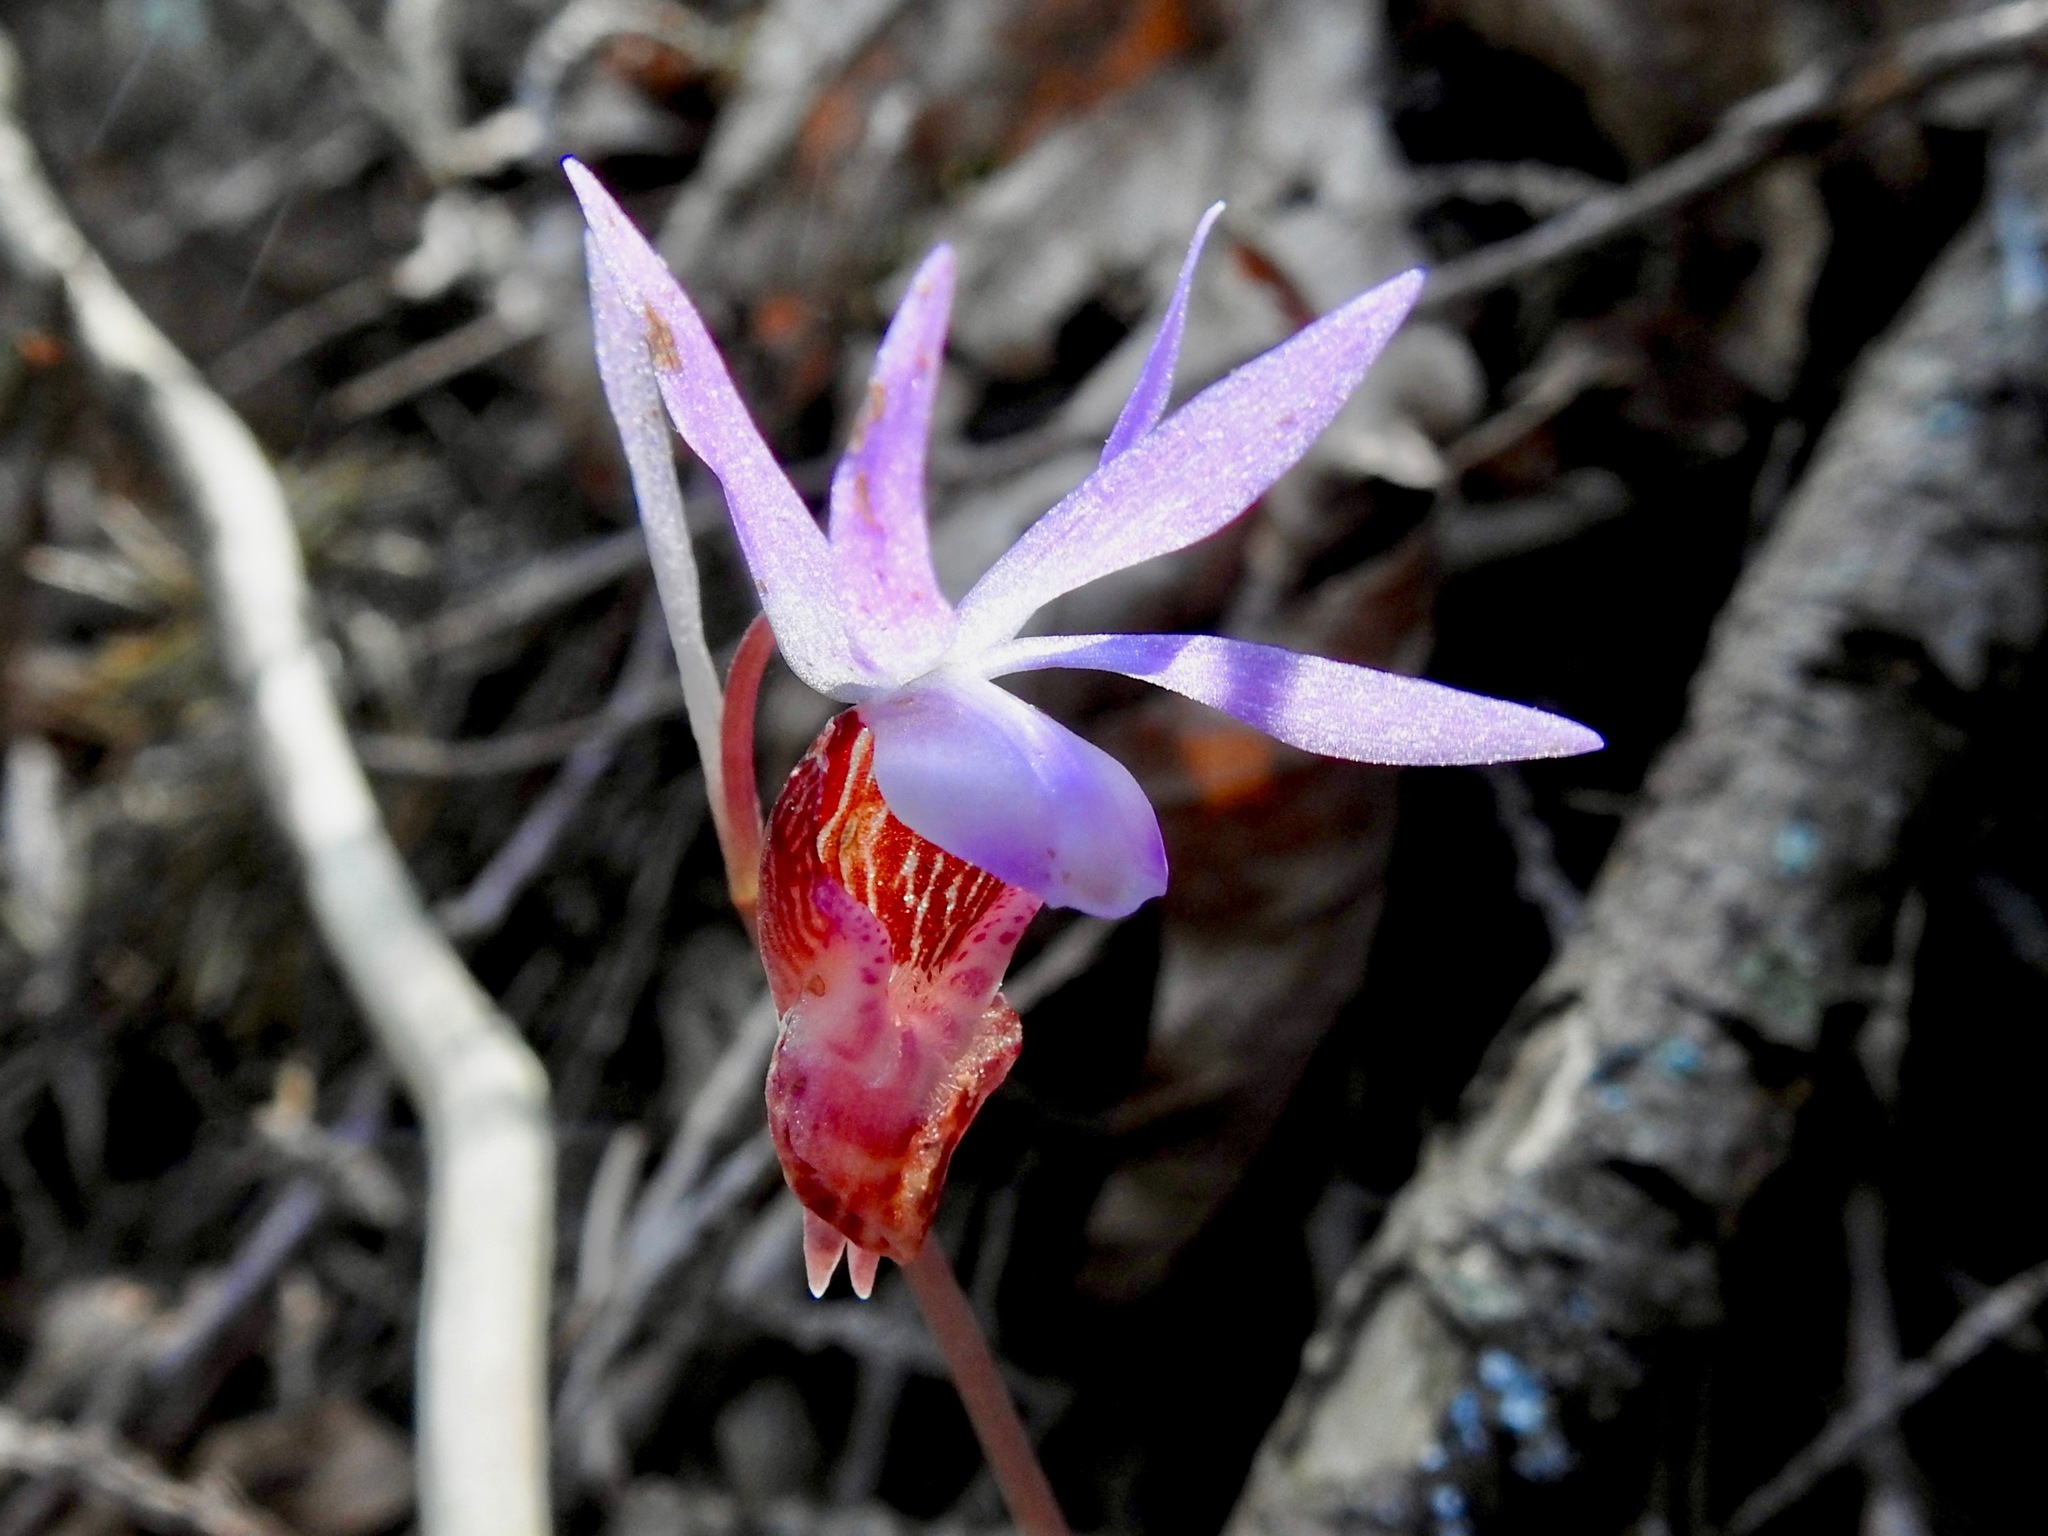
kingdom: Plantae
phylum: Tracheophyta
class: Liliopsida
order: Asparagales
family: Orchidaceae
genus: Calypso
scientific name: Calypso bulbosa
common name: Calypso
